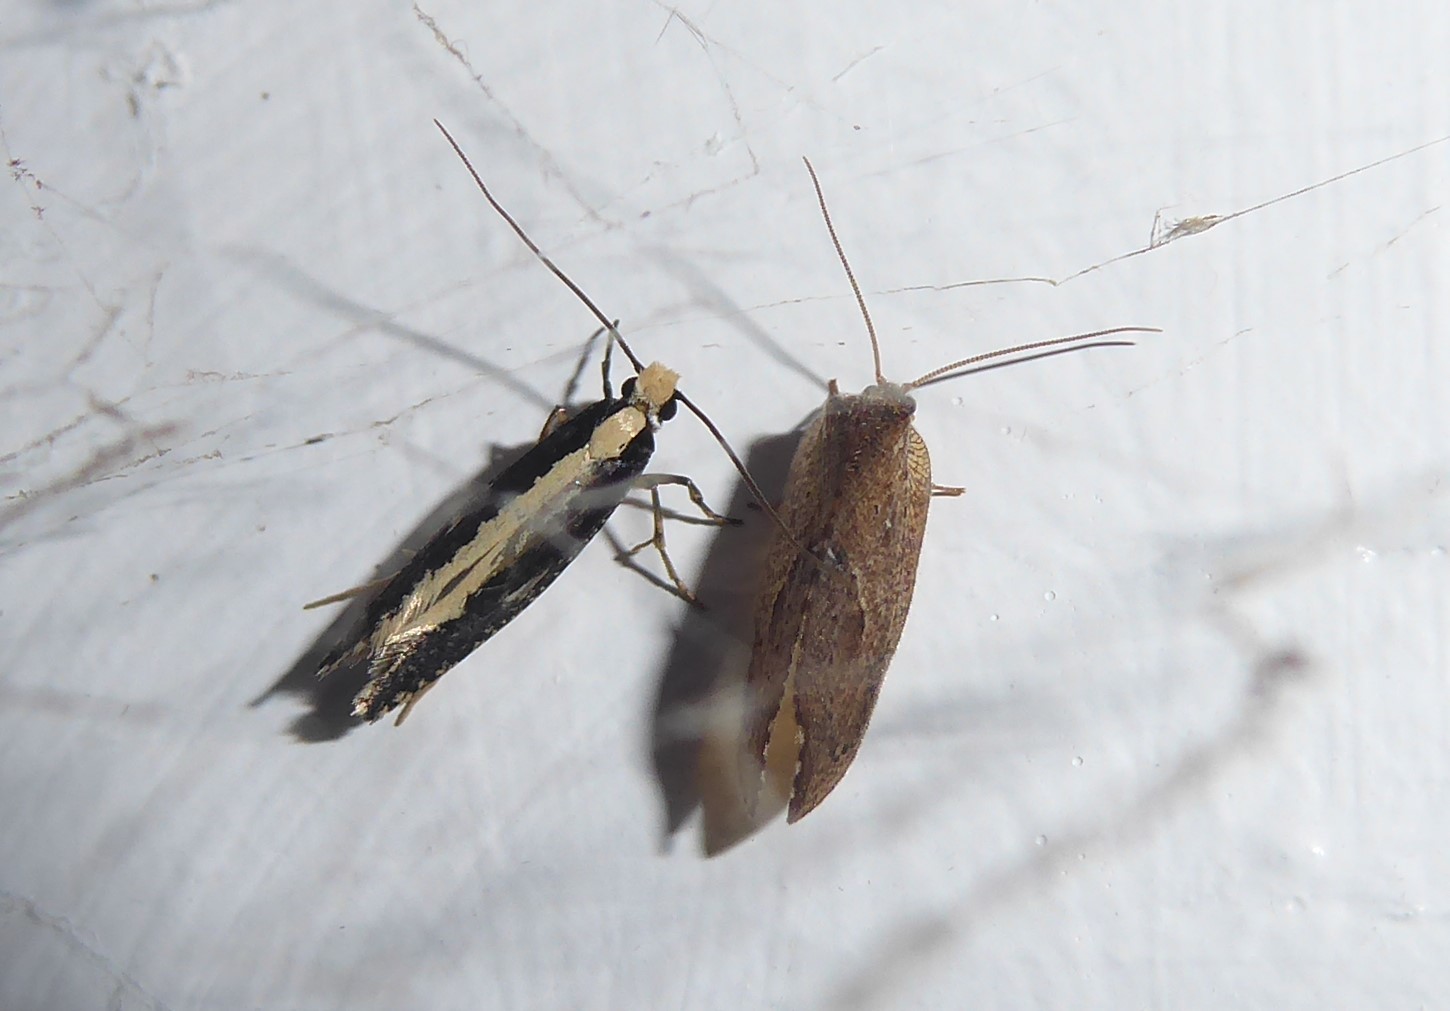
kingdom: Animalia
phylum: Arthropoda
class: Insecta
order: Neuroptera
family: Hemerobiidae
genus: Drepanacra
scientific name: Drepanacra binocula
